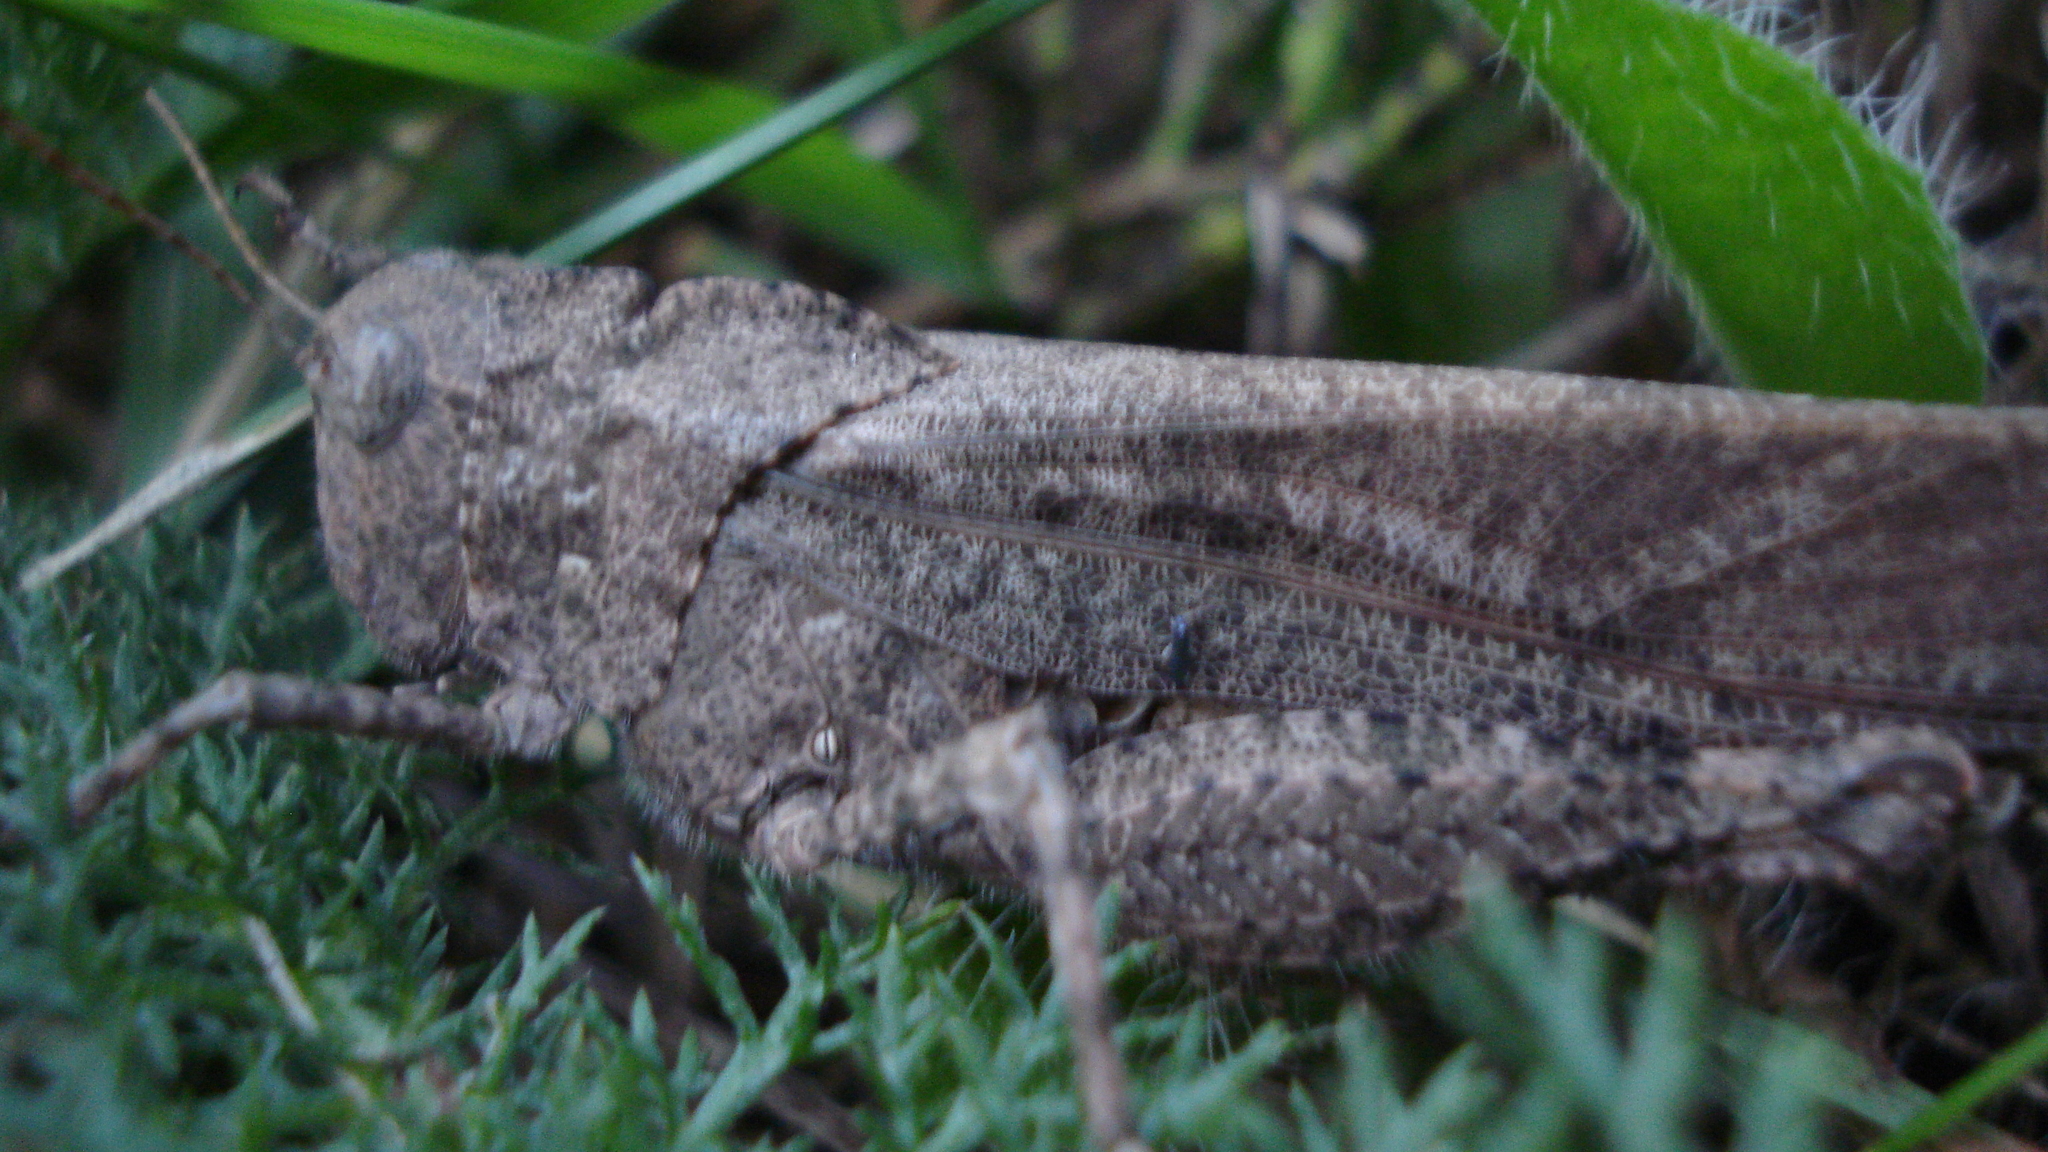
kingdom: Animalia
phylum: Arthropoda
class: Insecta
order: Orthoptera
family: Acrididae
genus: Dissosteira
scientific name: Dissosteira carolina
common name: Carolina grasshopper
